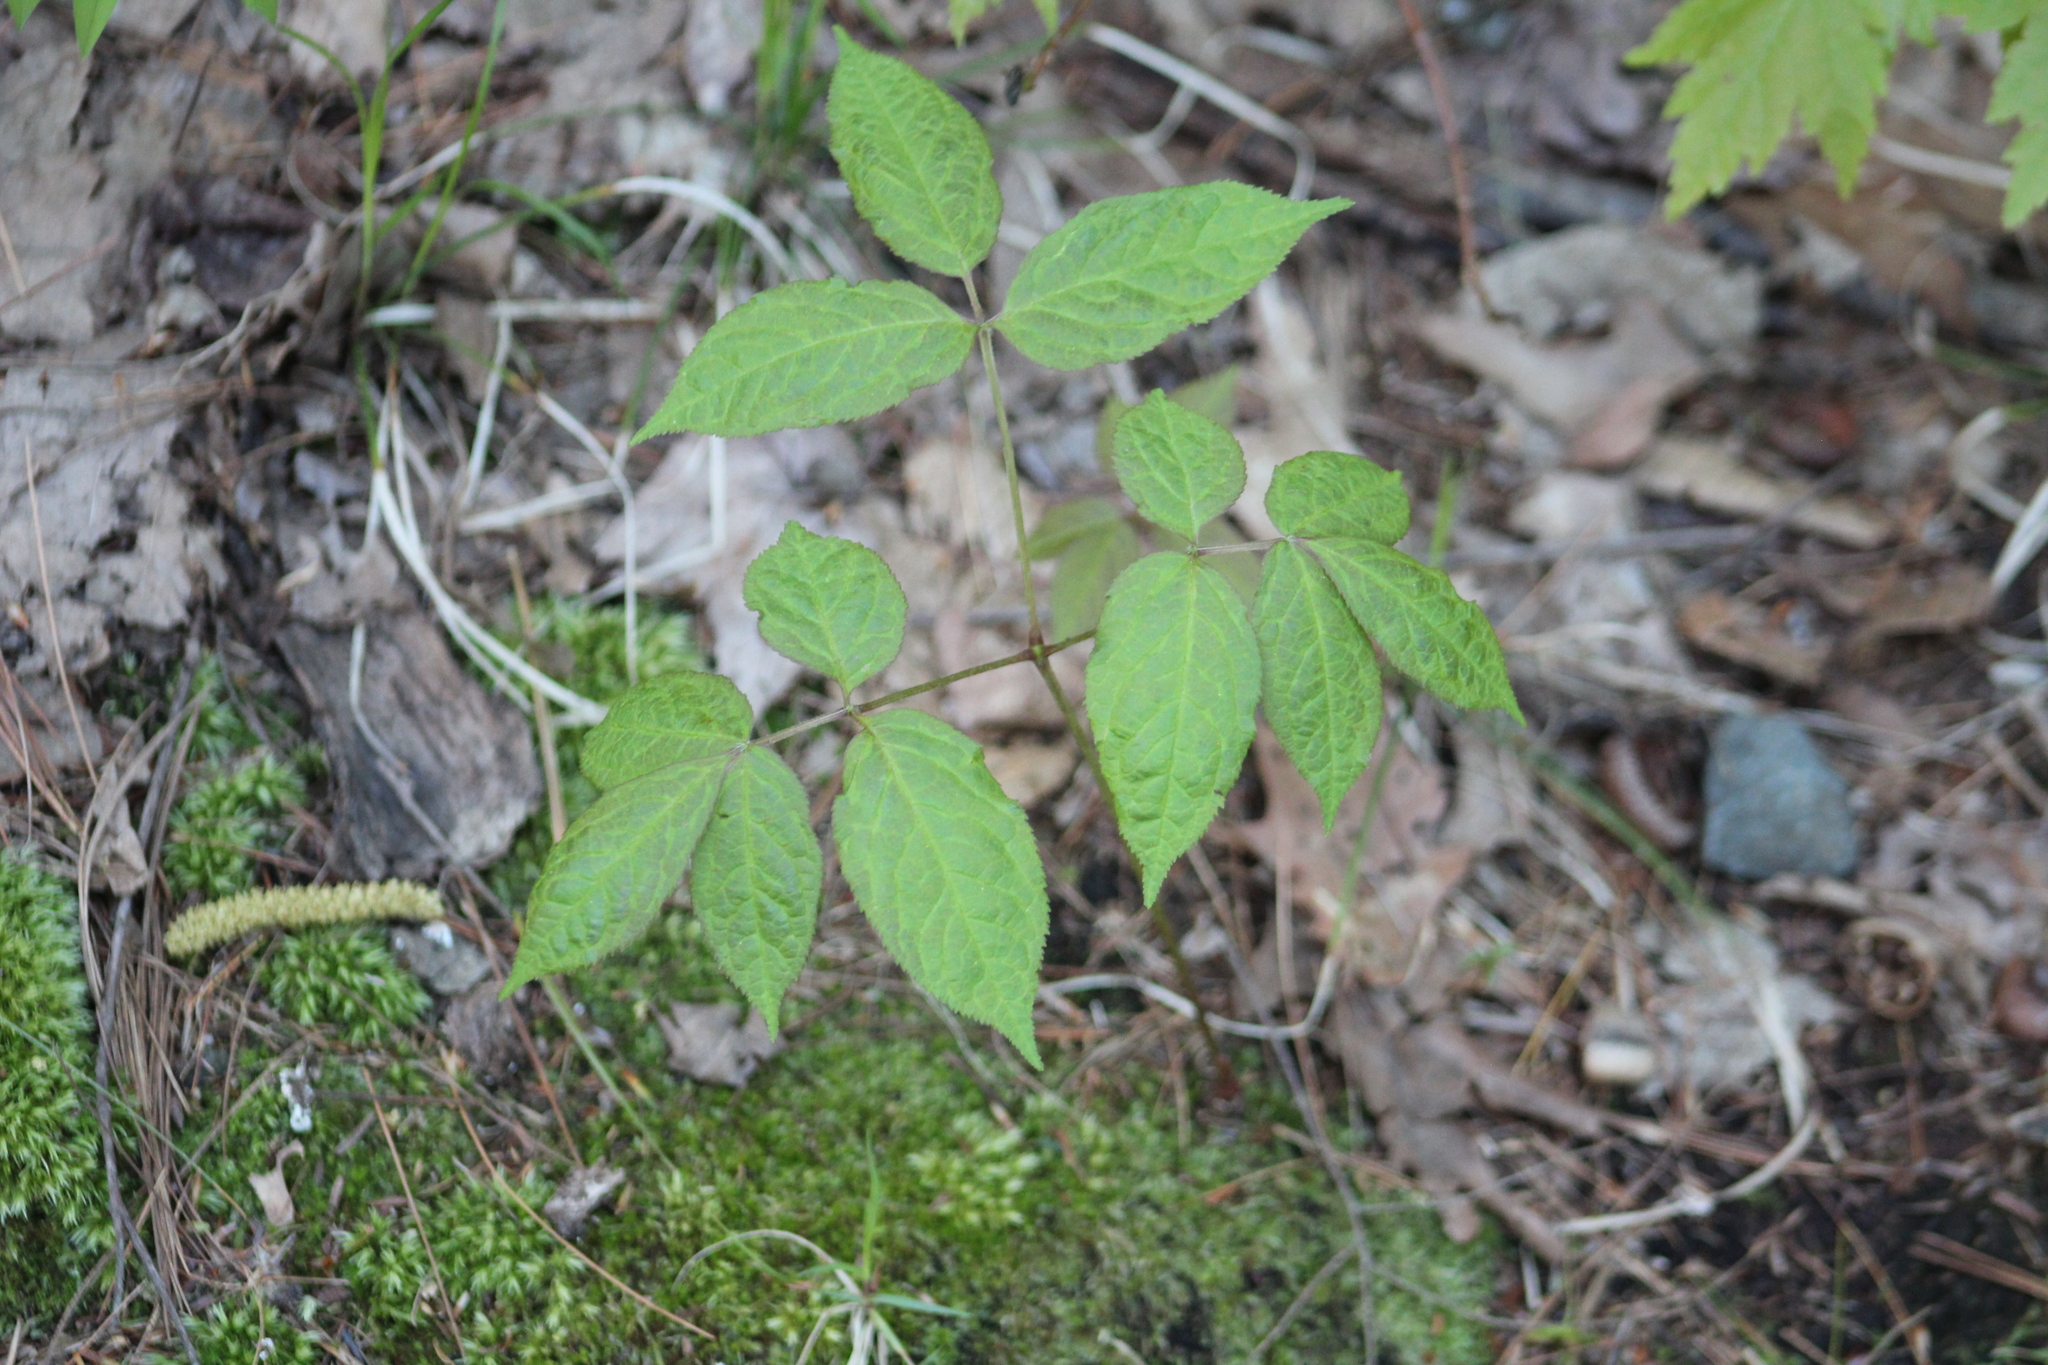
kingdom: Plantae
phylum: Tracheophyta
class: Magnoliopsida
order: Apiales
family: Araliaceae
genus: Aralia
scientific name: Aralia nudicaulis
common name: Wild sarsaparilla
